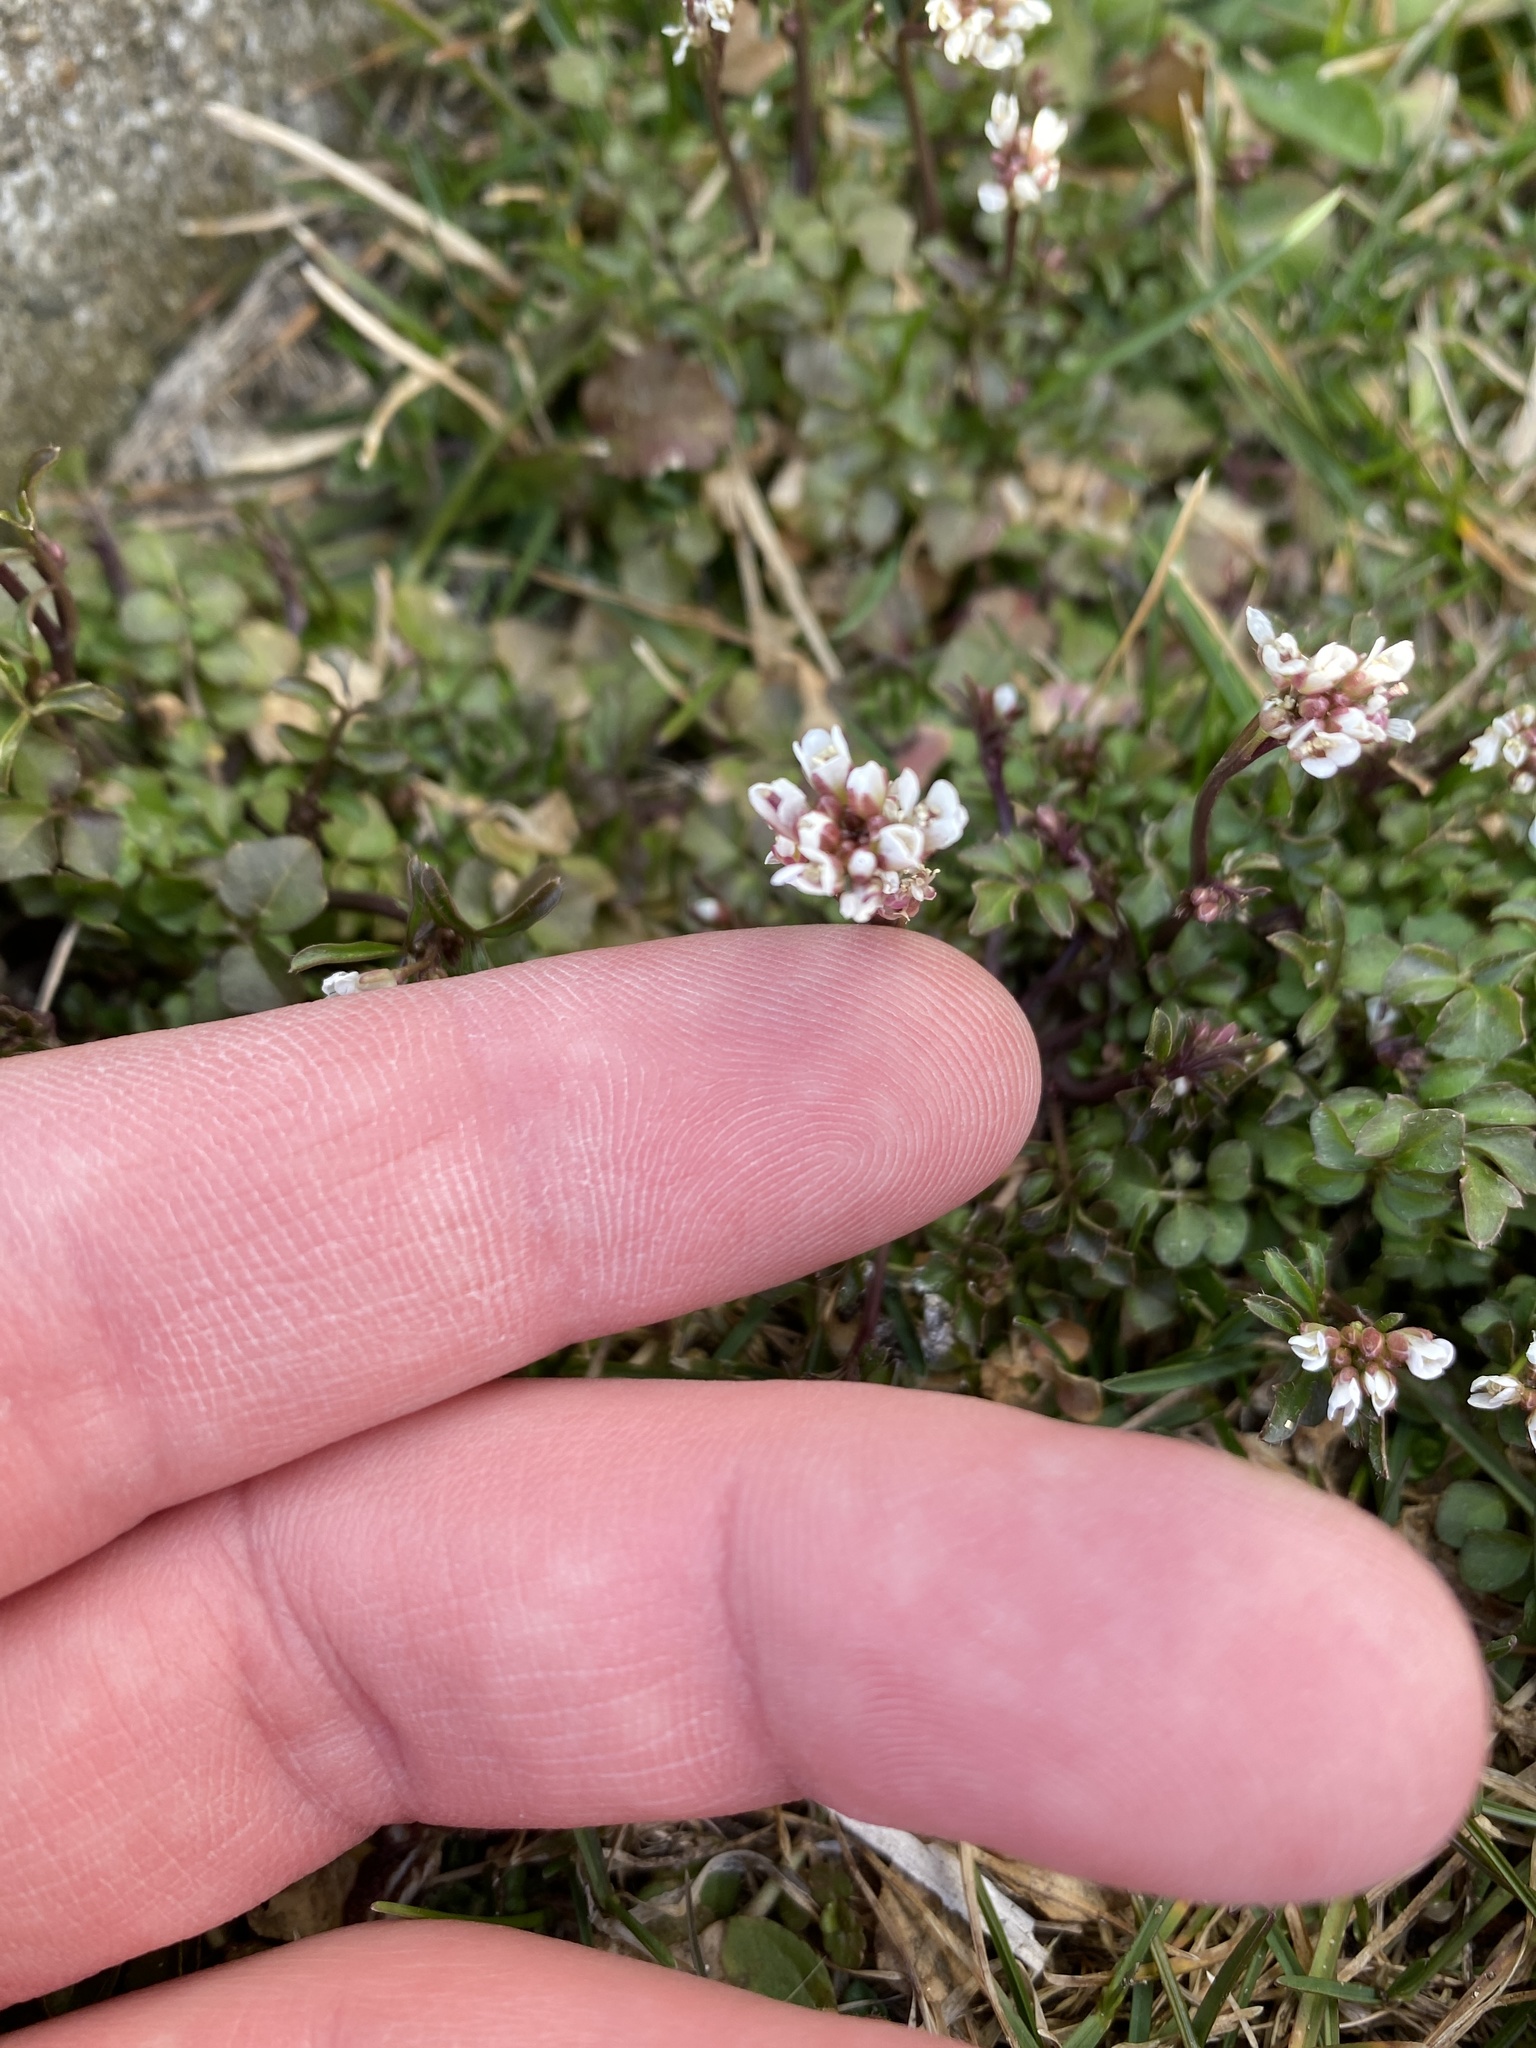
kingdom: Plantae
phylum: Tracheophyta
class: Magnoliopsida
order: Brassicales
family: Brassicaceae
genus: Cardamine
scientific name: Cardamine hirsuta
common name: Hairy bittercress
